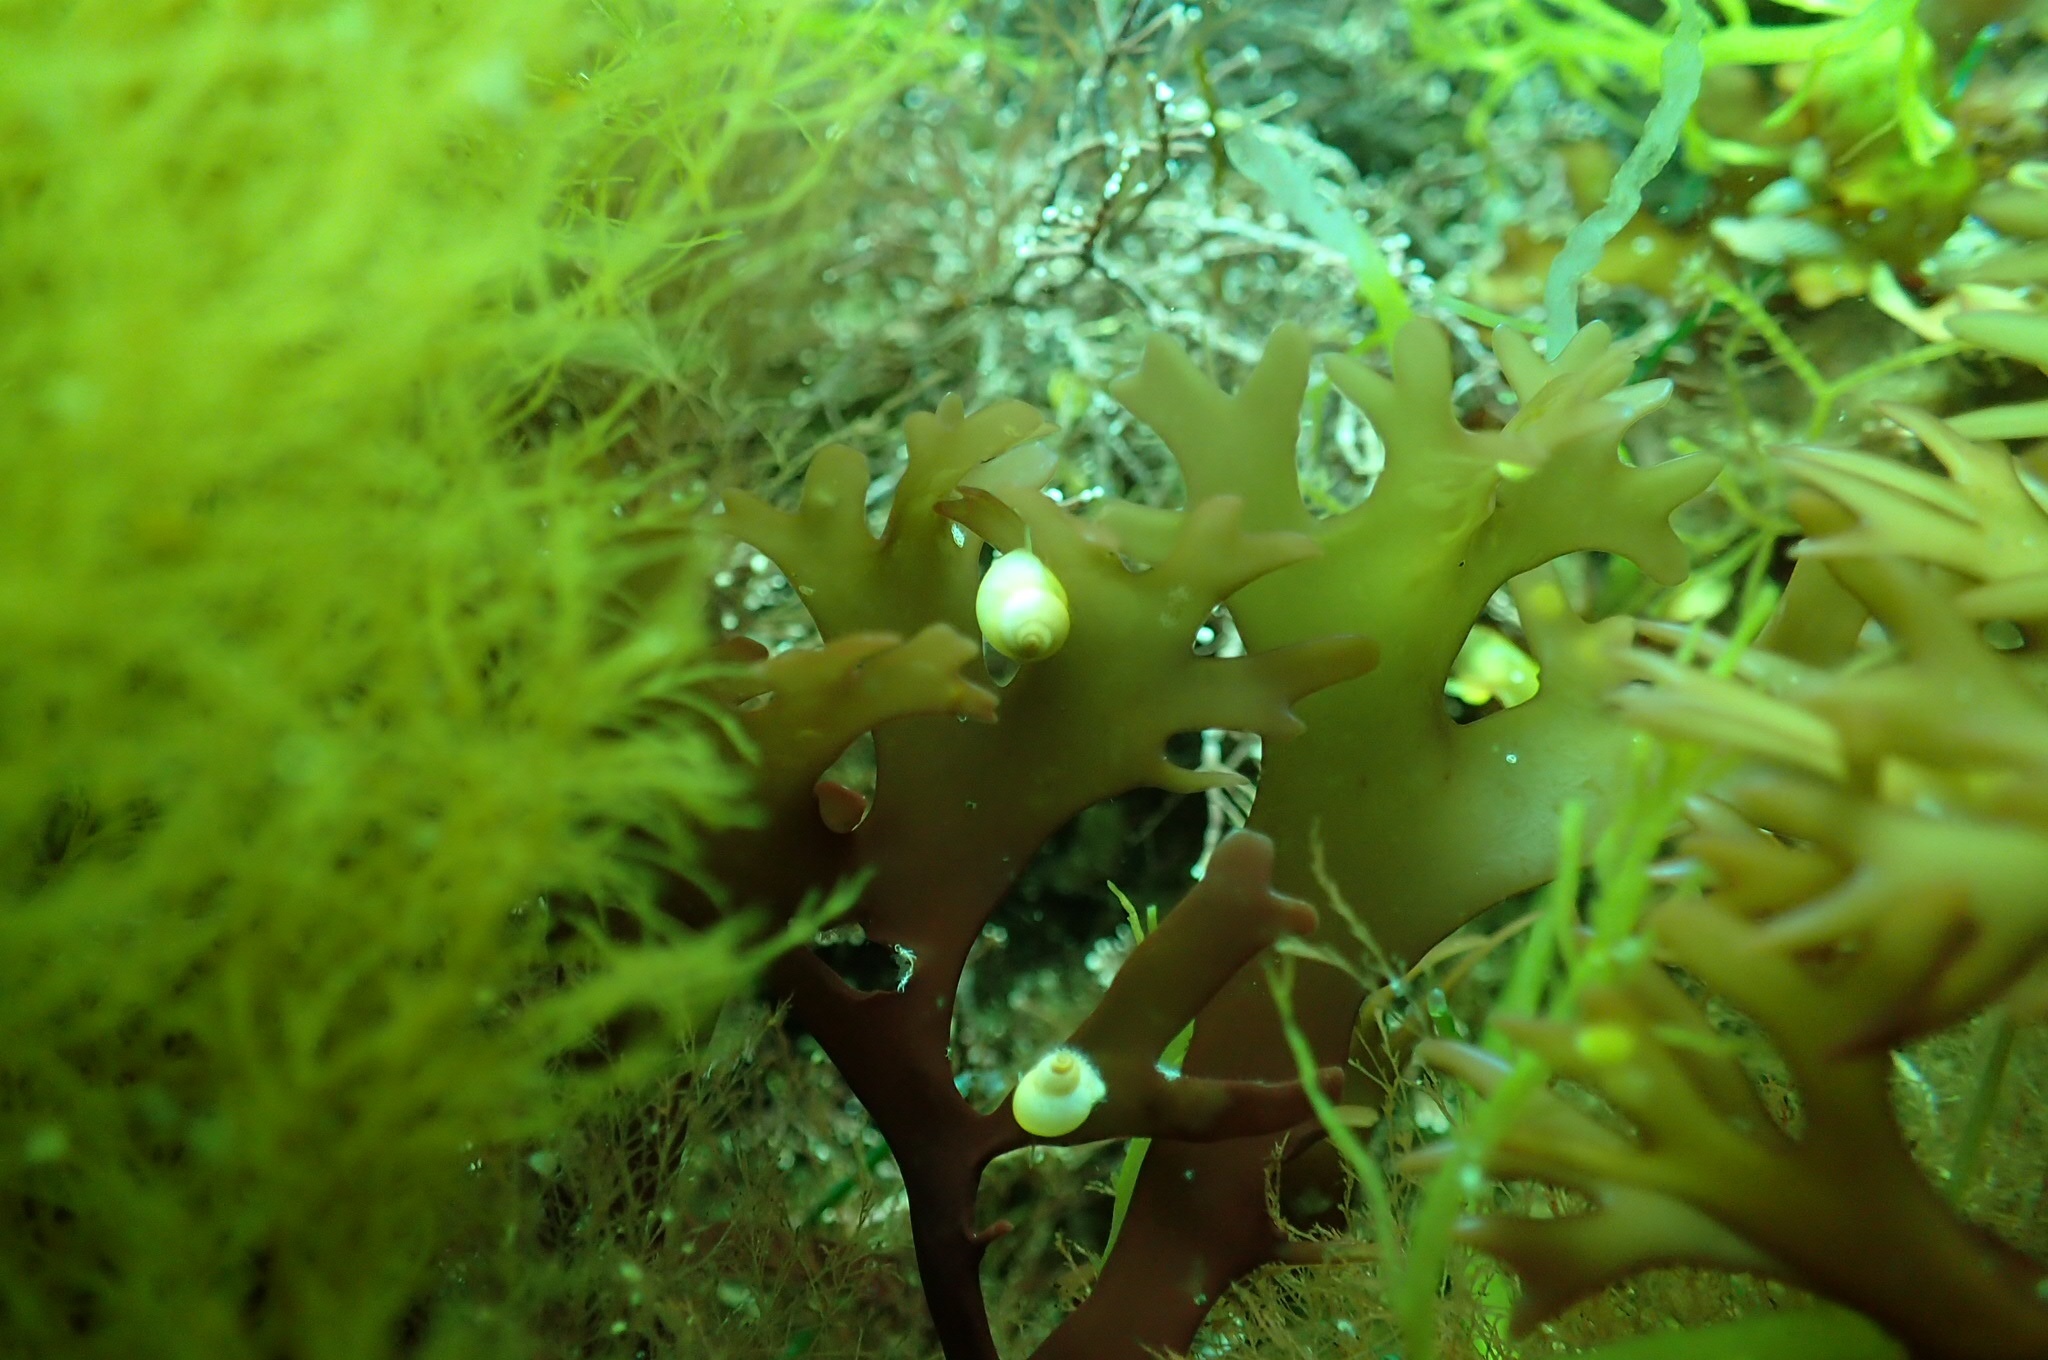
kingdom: Animalia
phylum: Mollusca
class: Gastropoda
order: Littorinimorpha
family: Littorinidae
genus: Lacuna
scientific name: Lacuna vincta
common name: Banded chink shell
